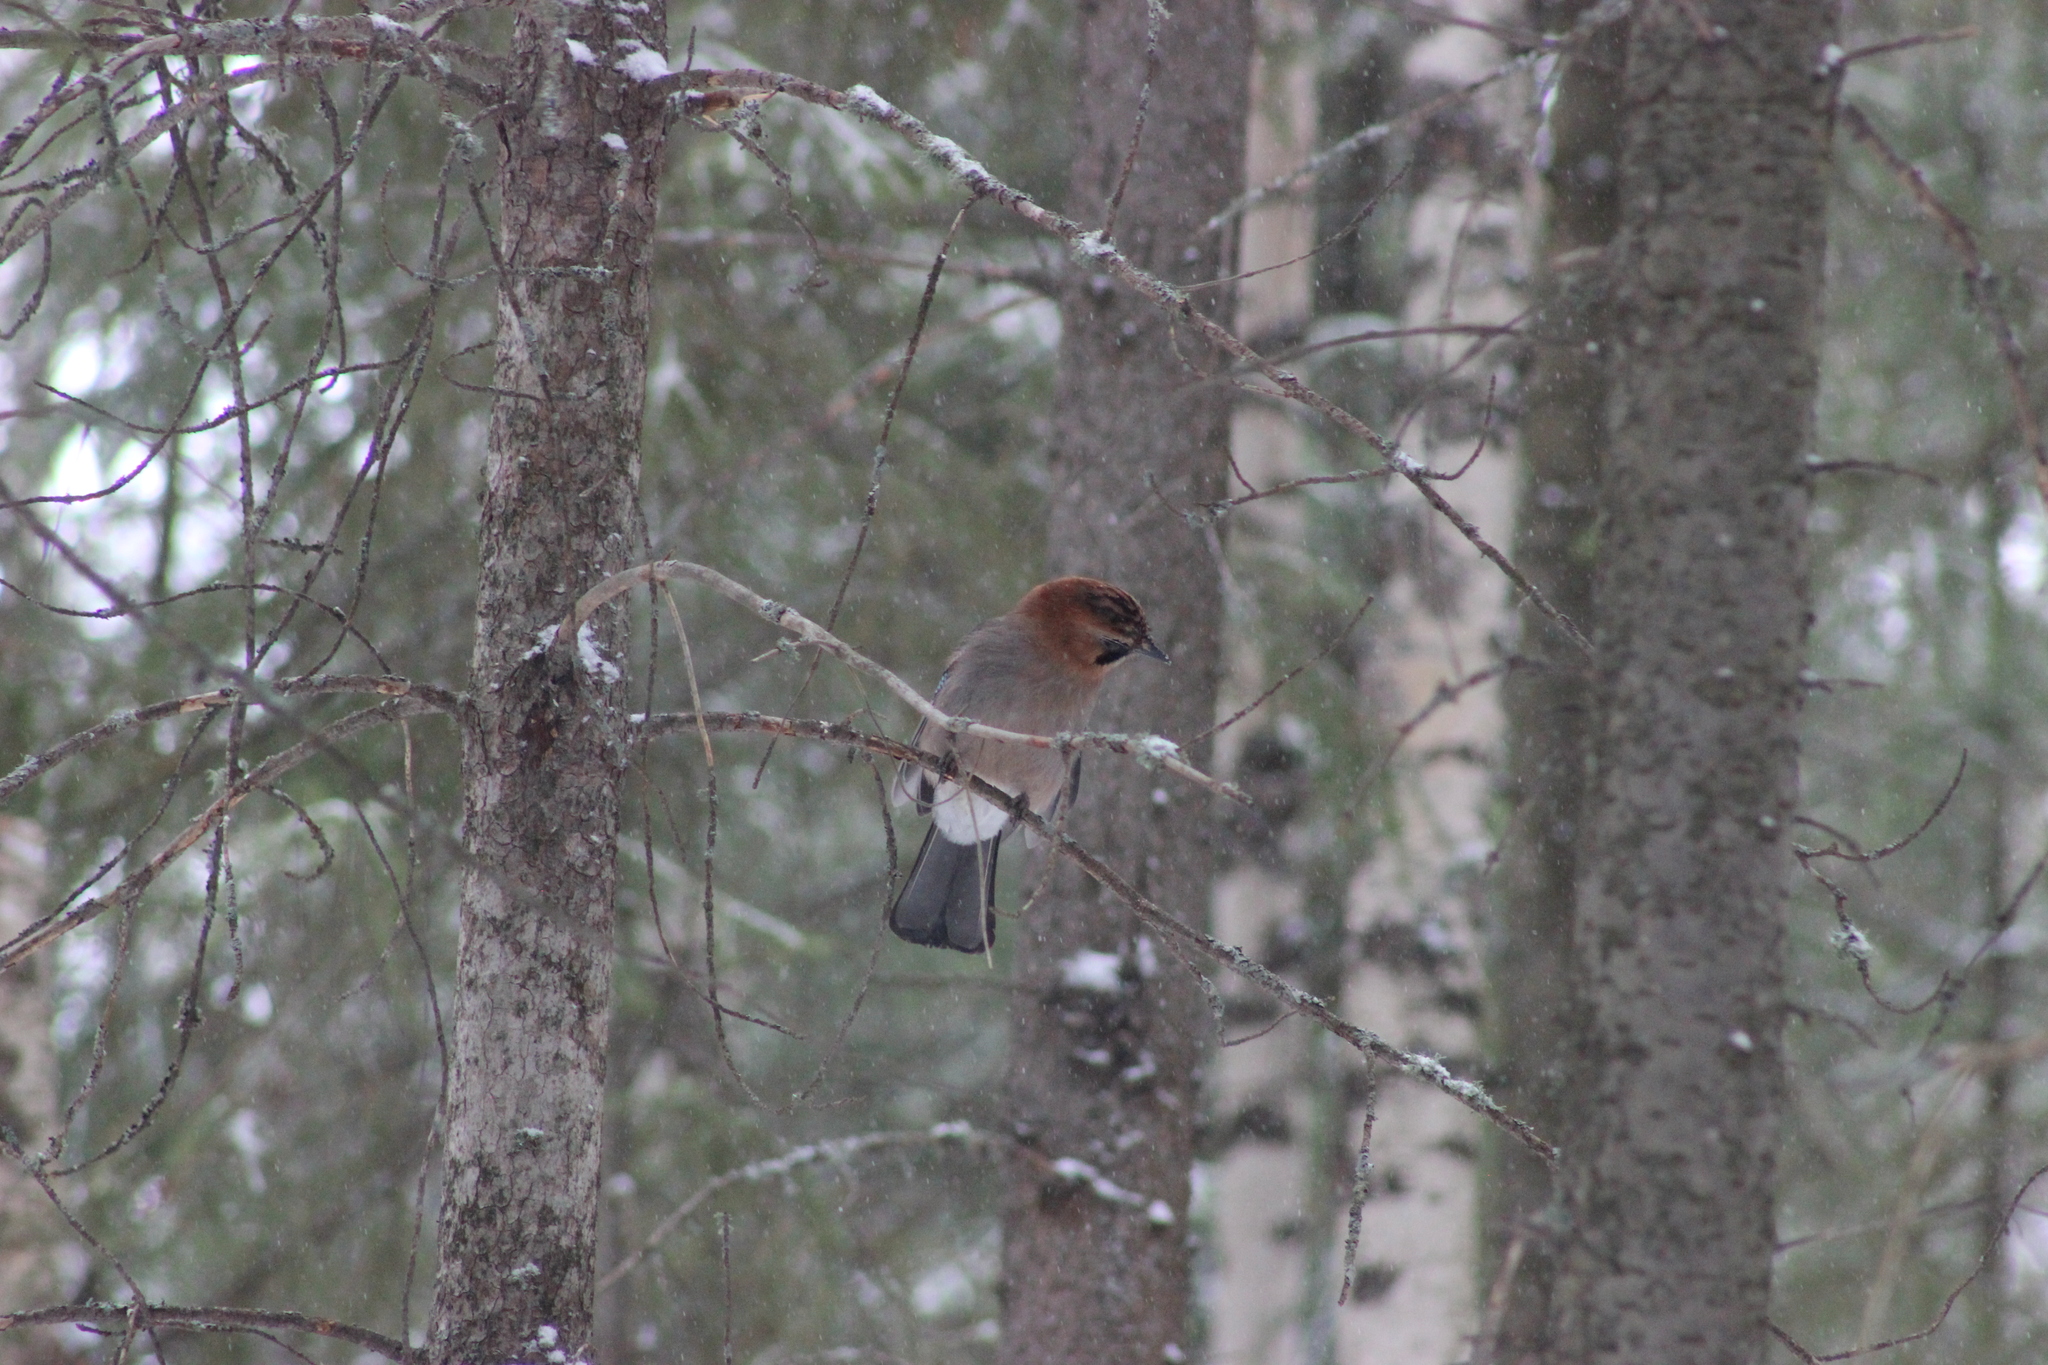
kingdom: Animalia
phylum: Chordata
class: Aves
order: Passeriformes
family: Corvidae
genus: Garrulus
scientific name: Garrulus glandarius
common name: Eurasian jay
